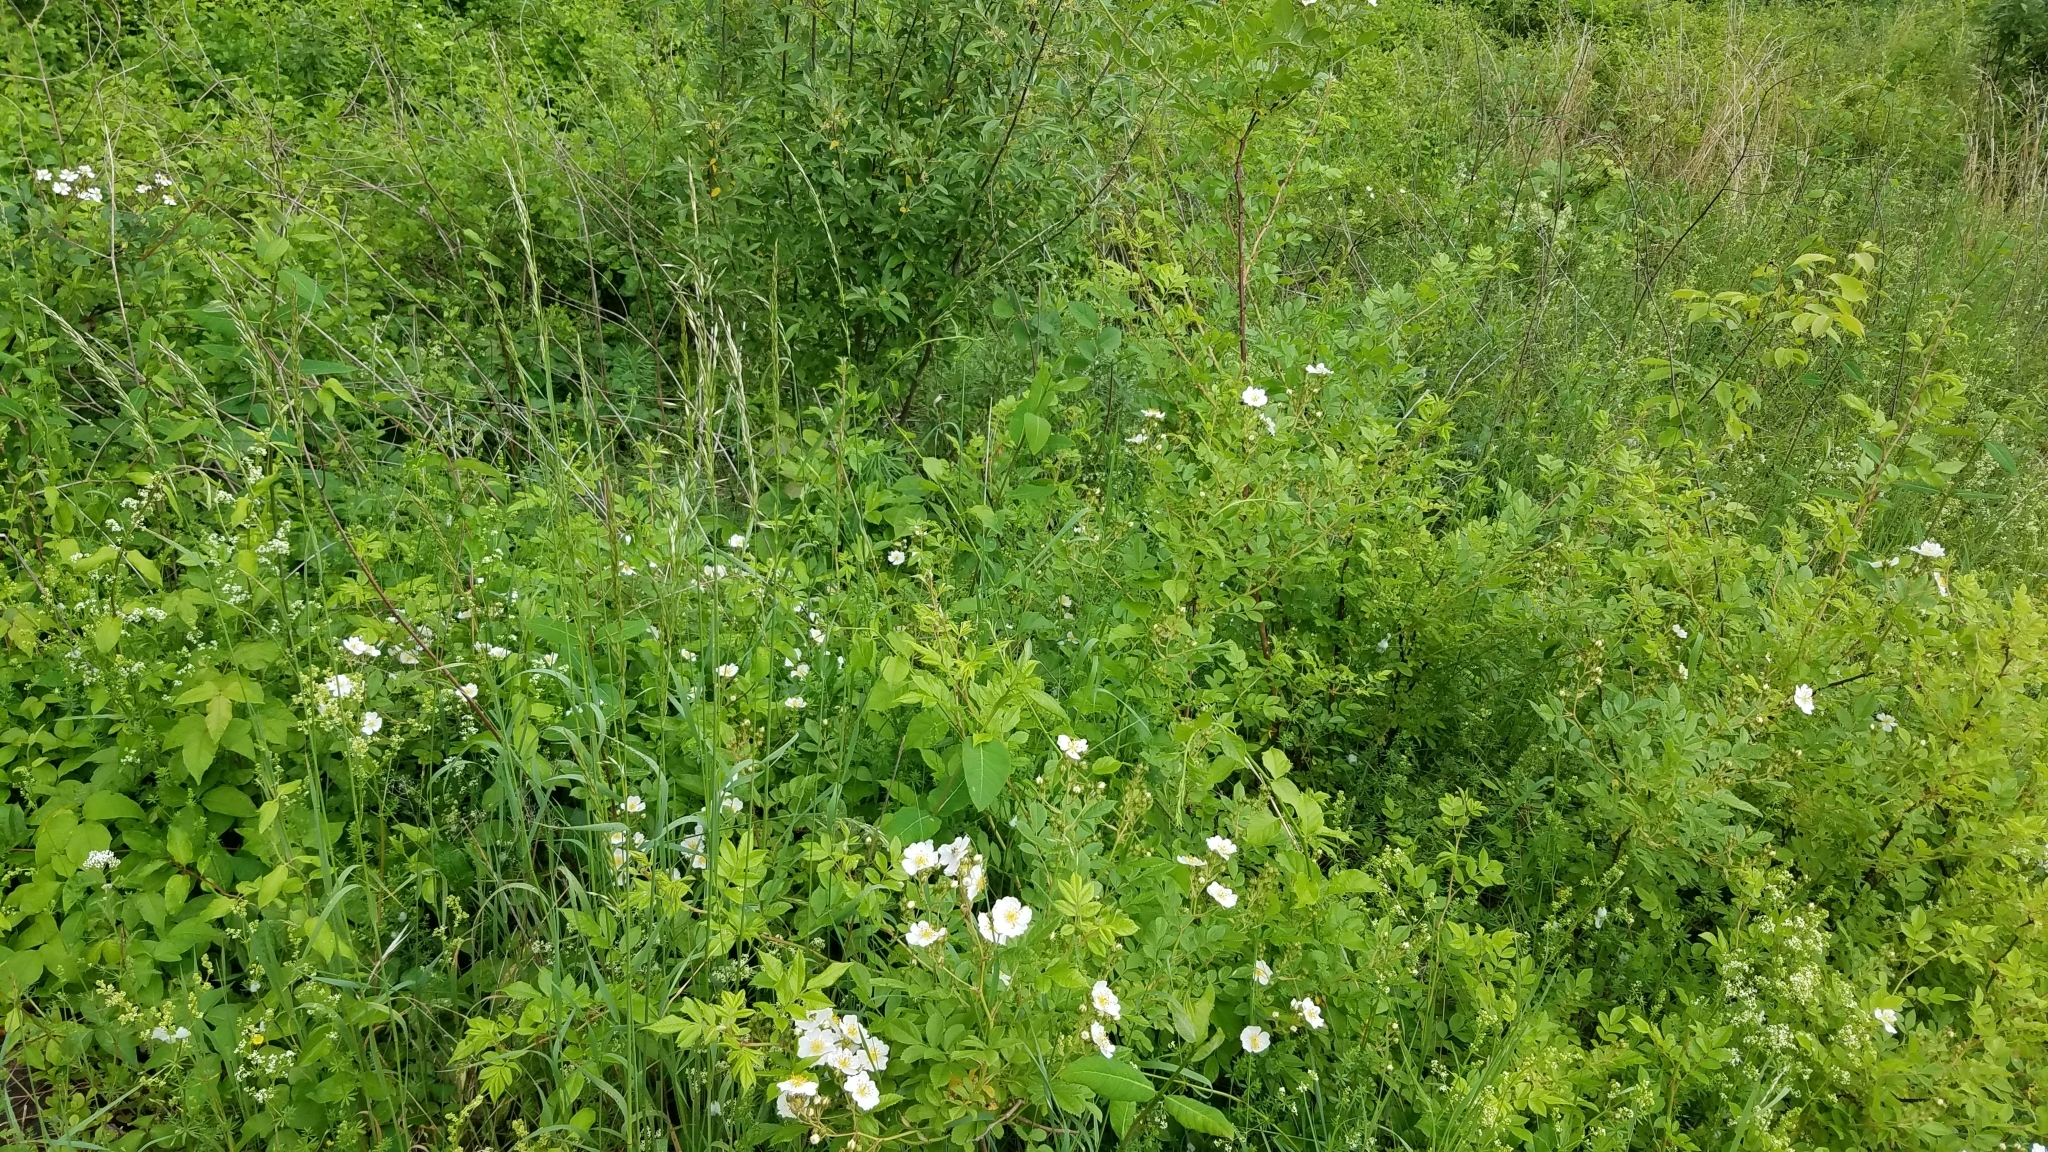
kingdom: Plantae
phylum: Tracheophyta
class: Magnoliopsida
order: Rosales
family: Rosaceae
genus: Rosa
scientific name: Rosa multiflora
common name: Multiflora rose
